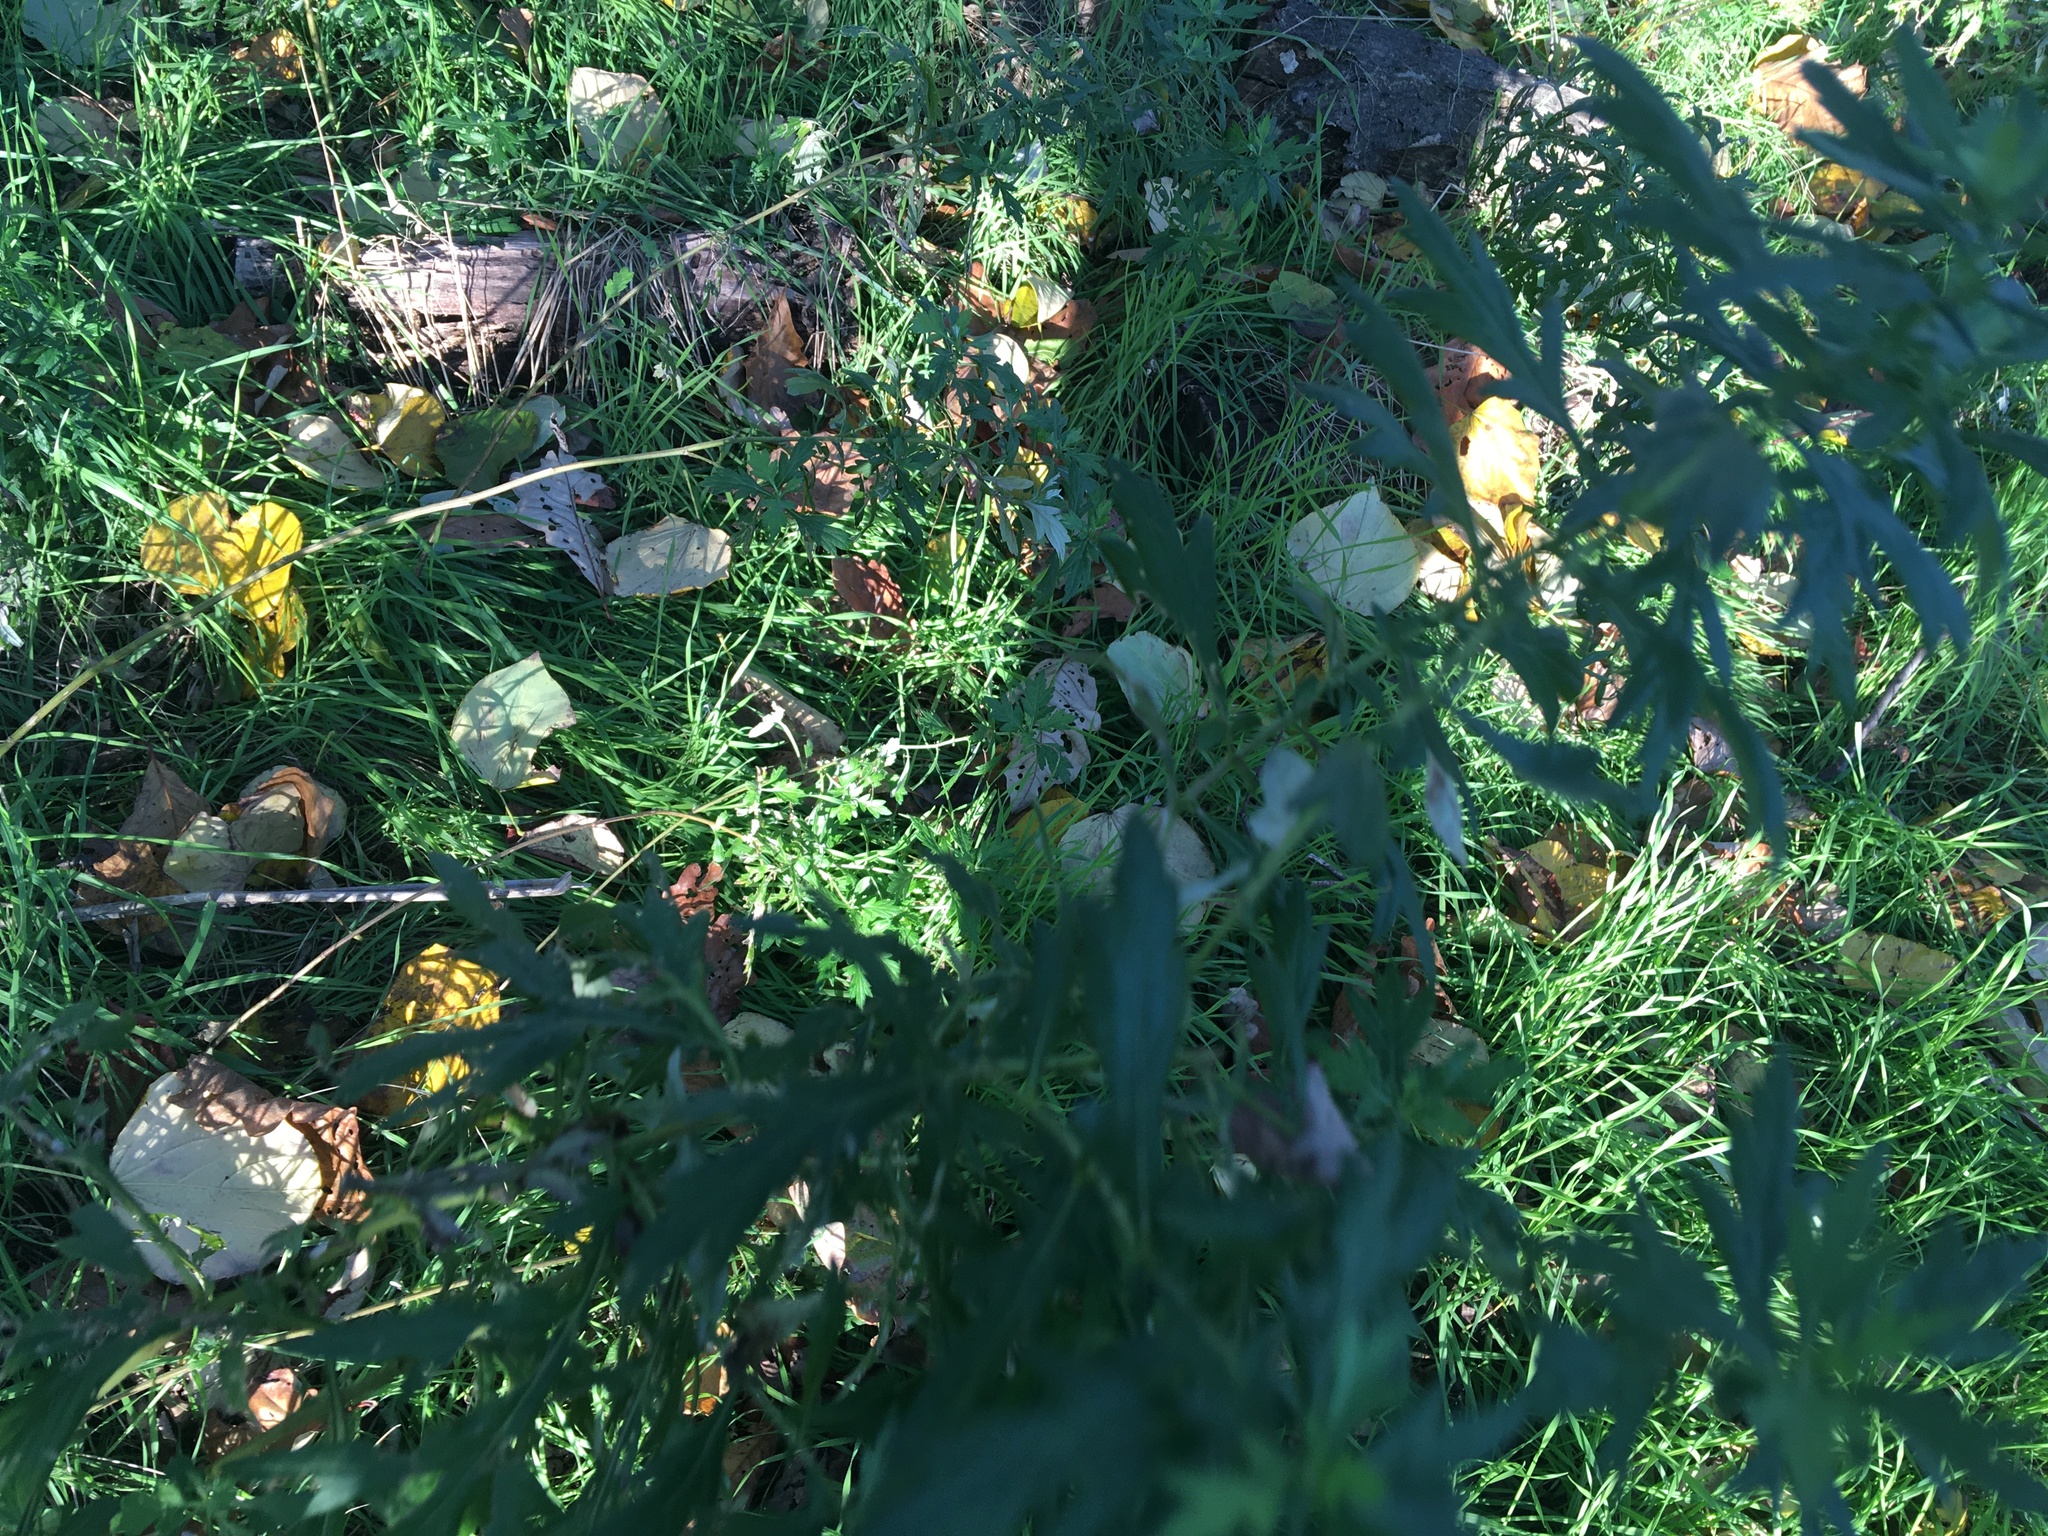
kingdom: Plantae
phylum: Tracheophyta
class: Magnoliopsida
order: Asterales
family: Asteraceae
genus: Artemisia
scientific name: Artemisia vulgaris
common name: Mugwort
